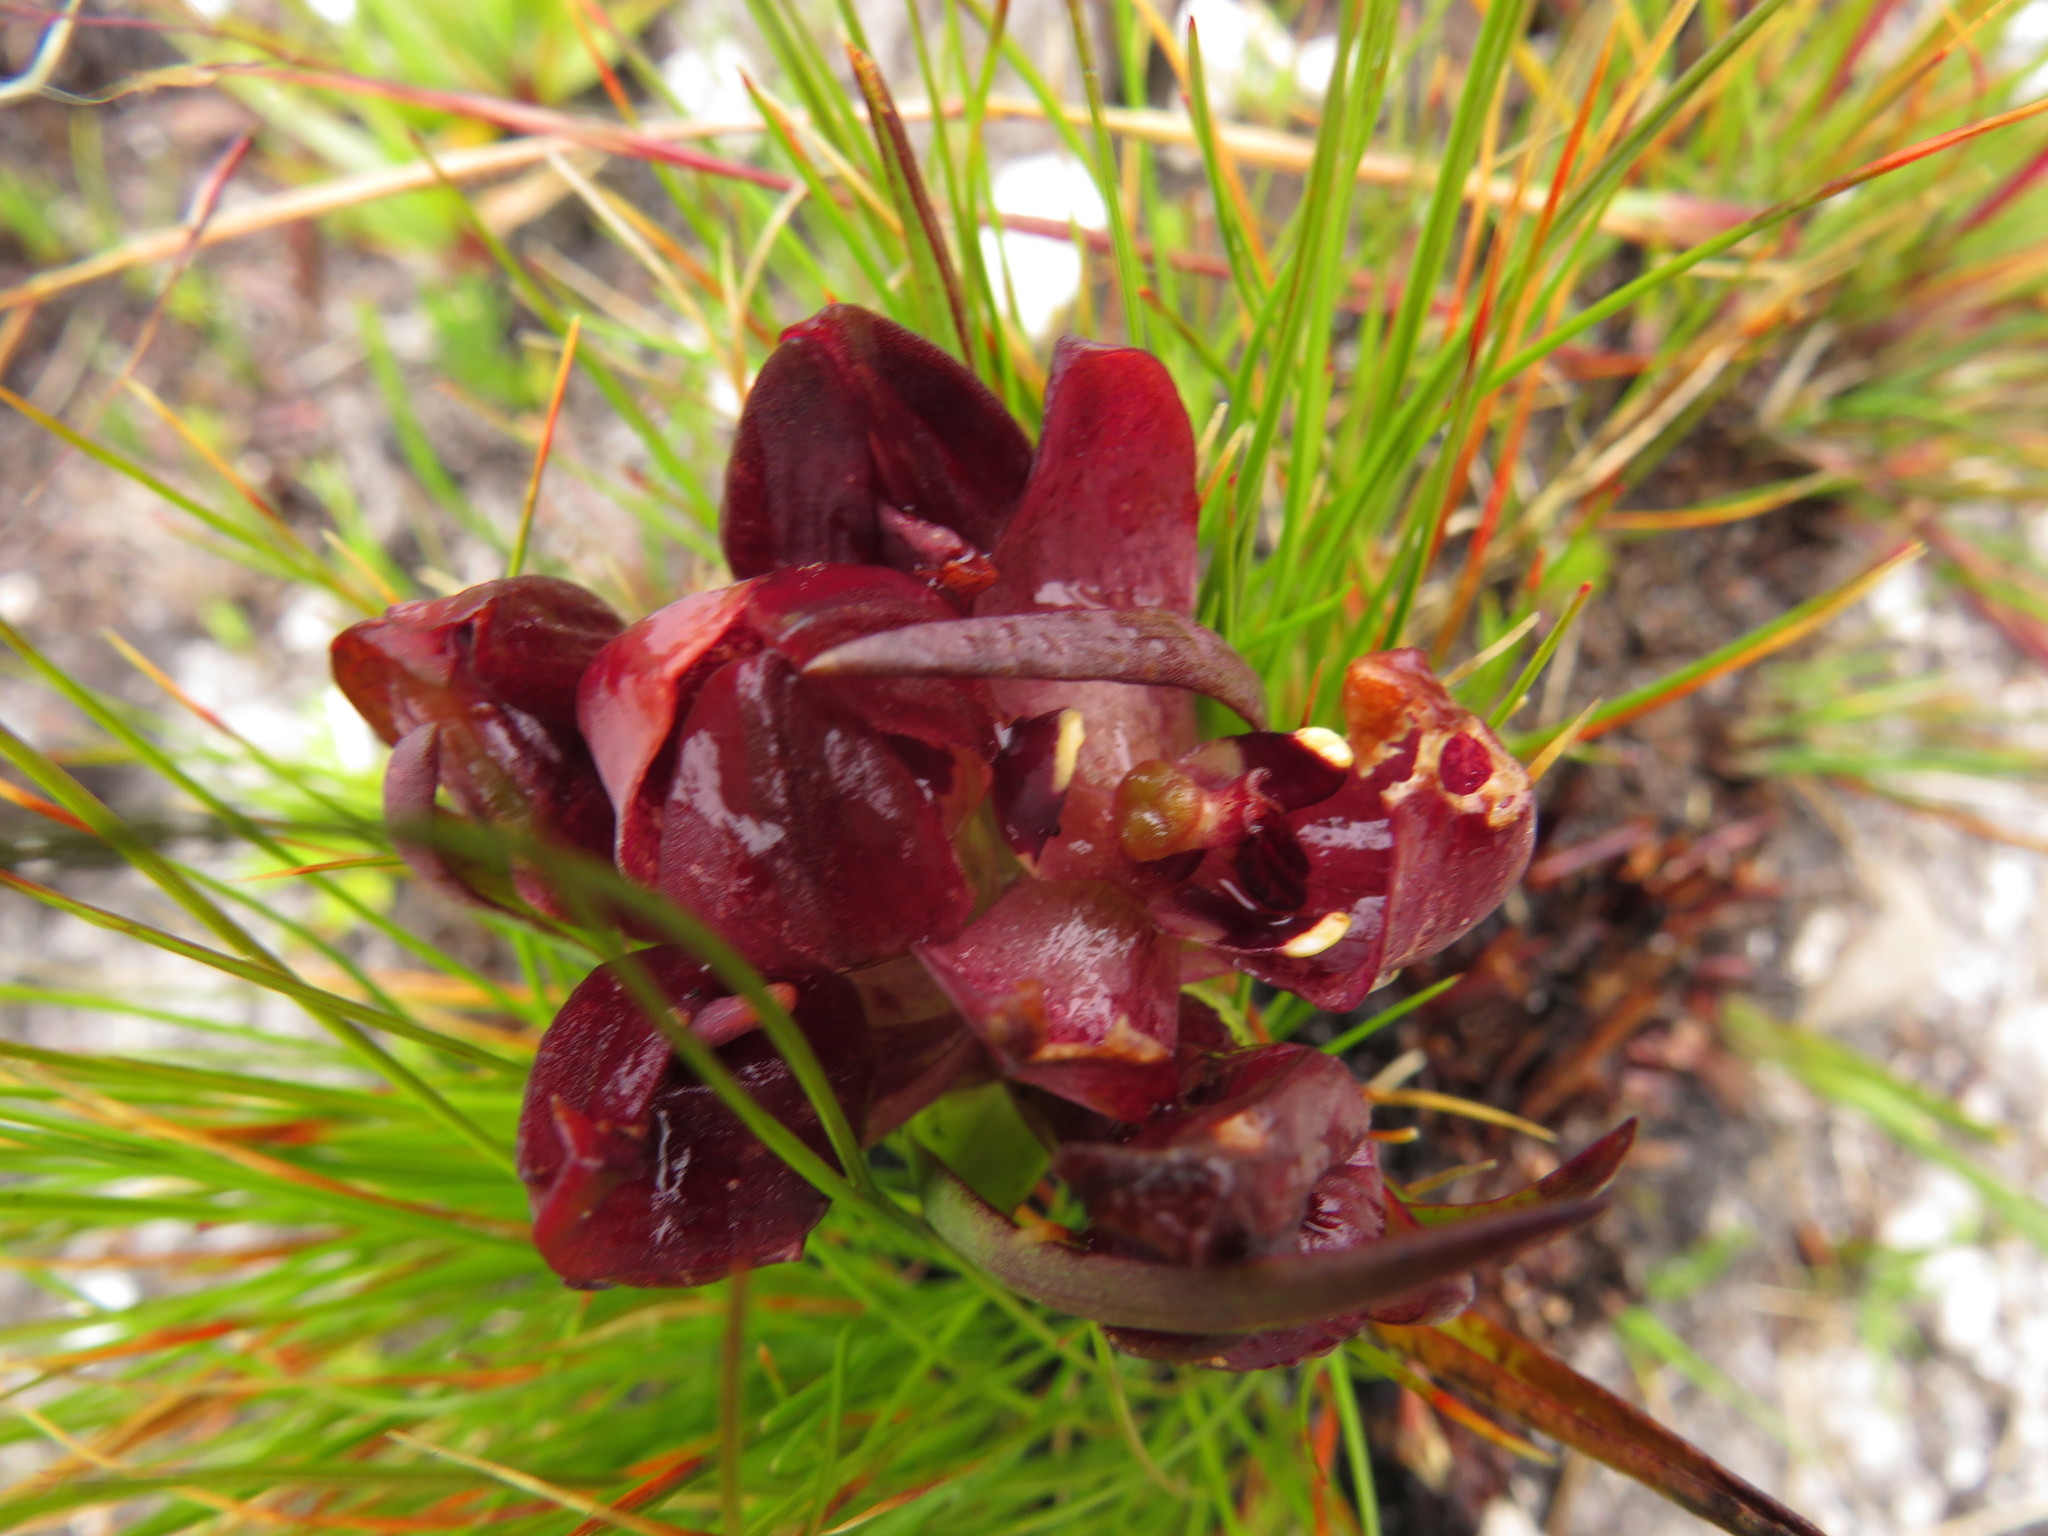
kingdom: Plantae
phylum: Tracheophyta
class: Liliopsida
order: Asparagales
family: Orchidaceae
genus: Disa
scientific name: Disa bodkinii
